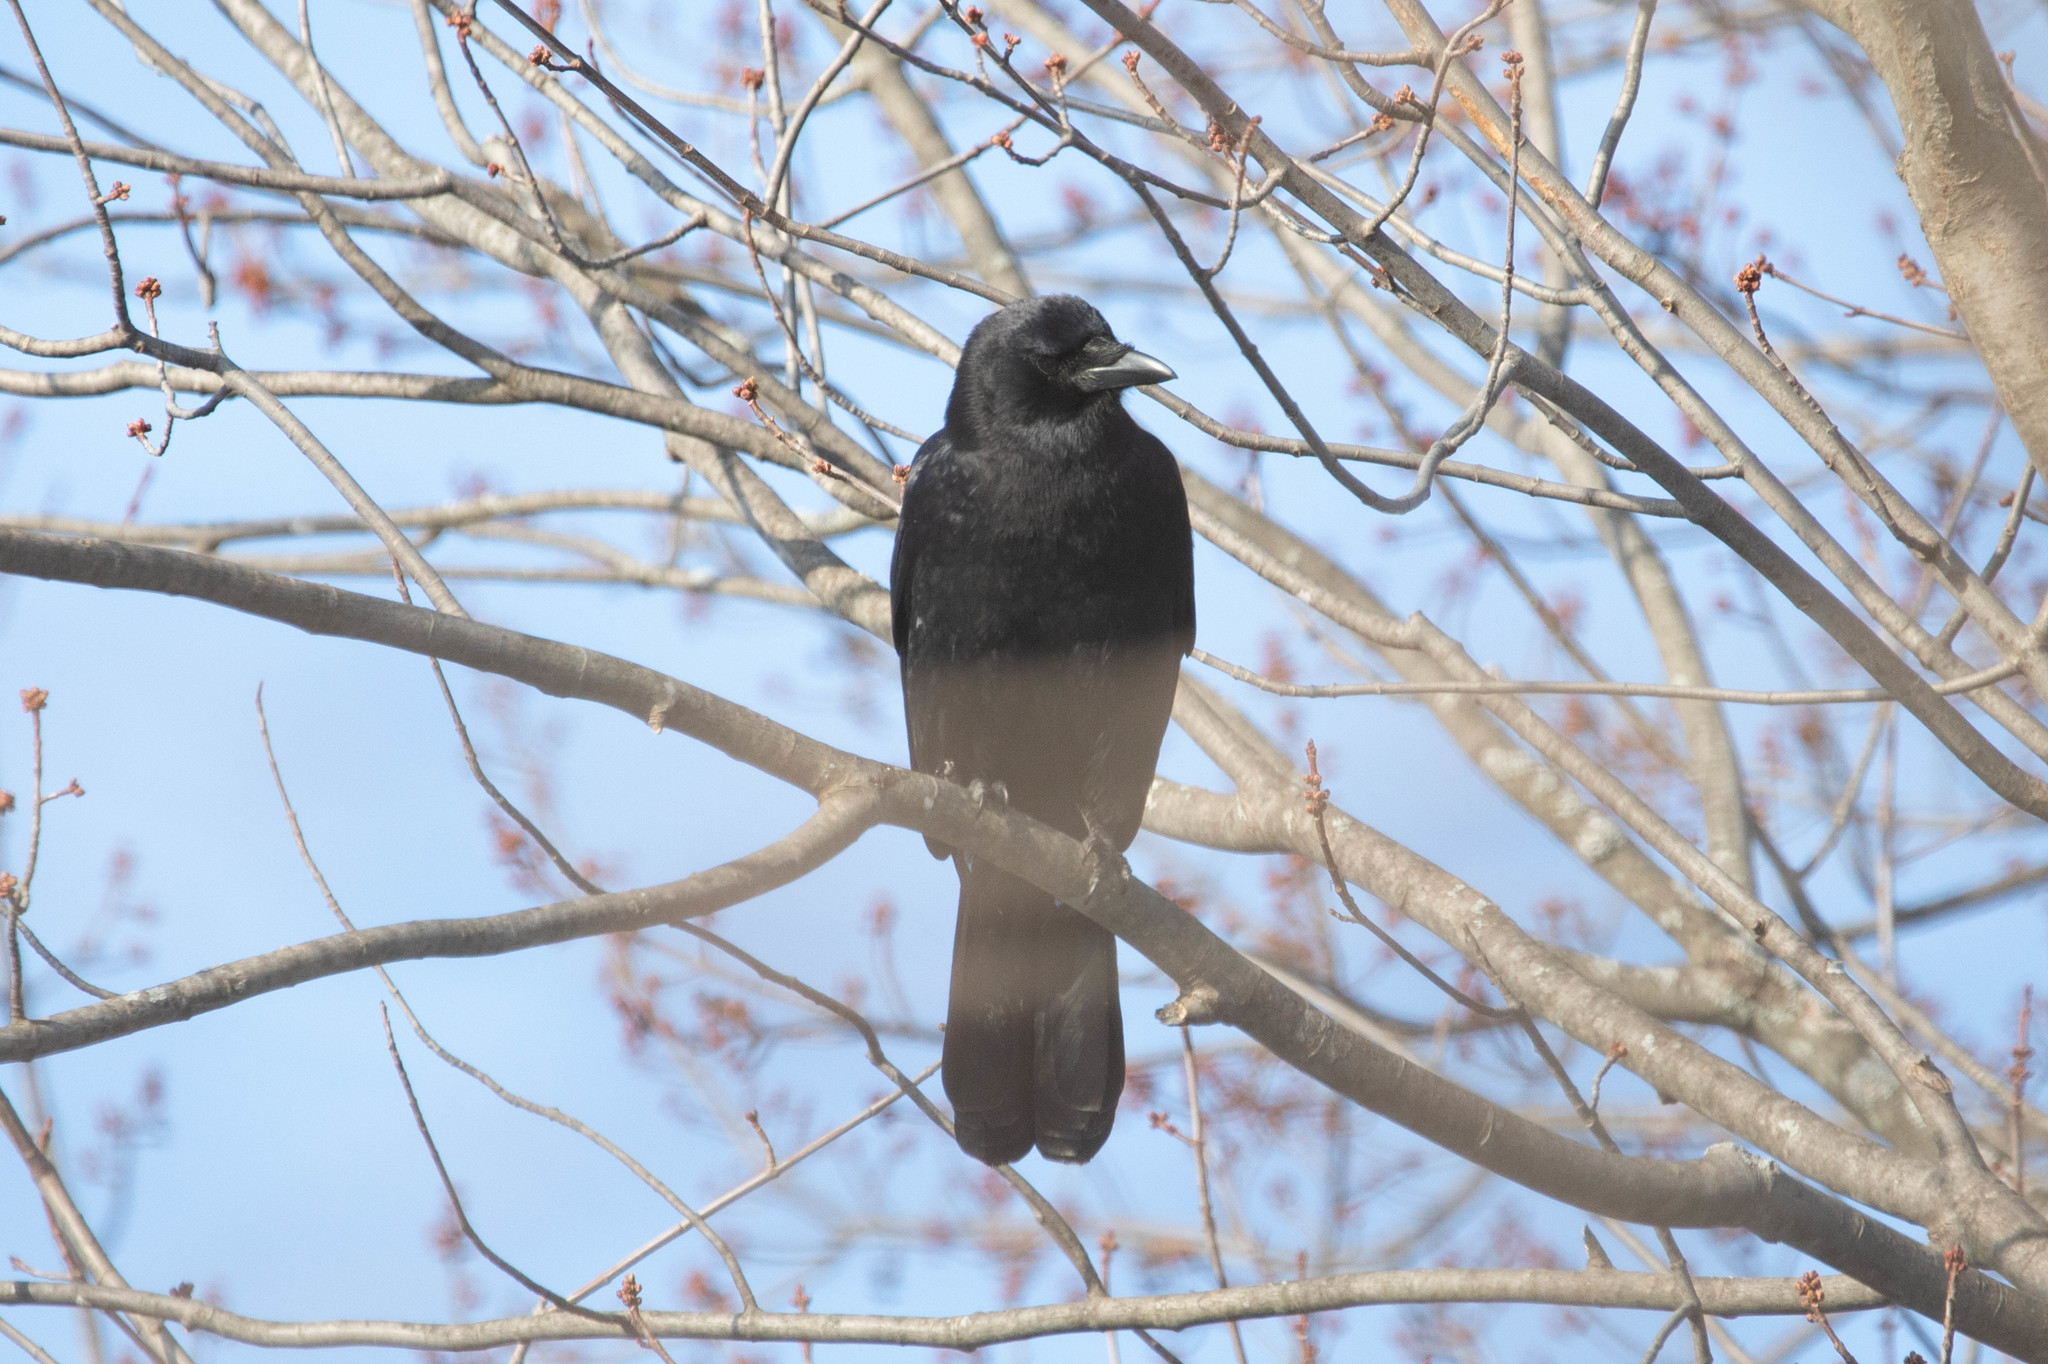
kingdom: Animalia
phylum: Chordata
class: Aves
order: Passeriformes
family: Corvidae
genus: Corvus
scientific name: Corvus brachyrhynchos
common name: American crow
